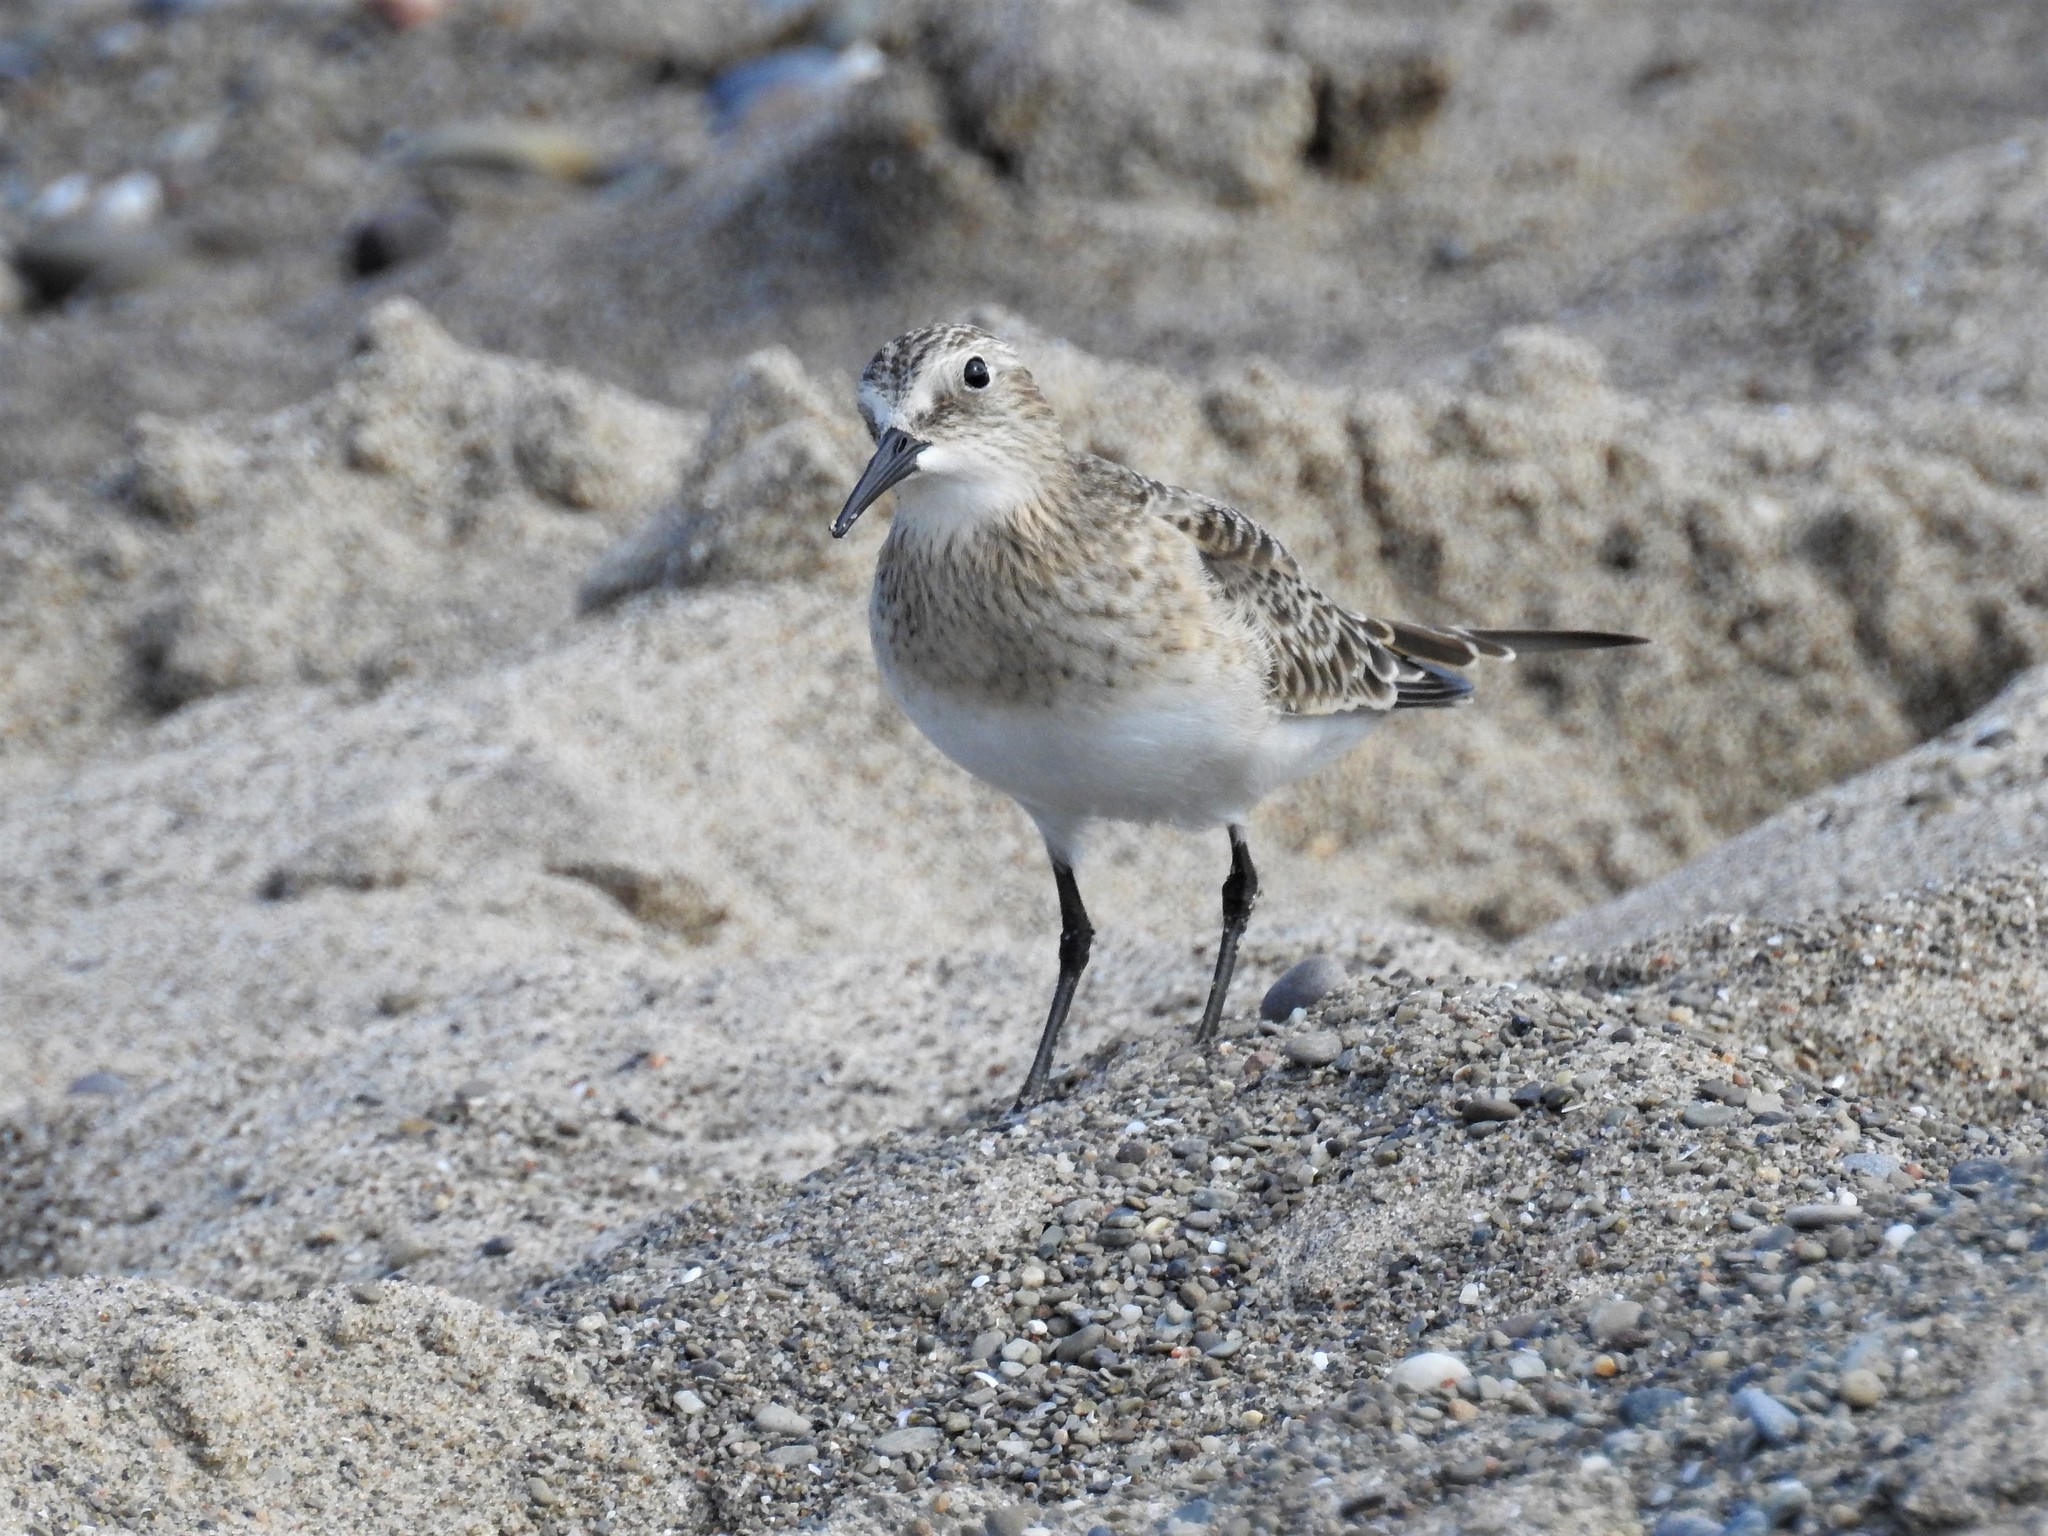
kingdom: Animalia
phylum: Chordata
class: Aves
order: Charadriiformes
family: Scolopacidae
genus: Calidris
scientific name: Calidris bairdii
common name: Baird's sandpiper
